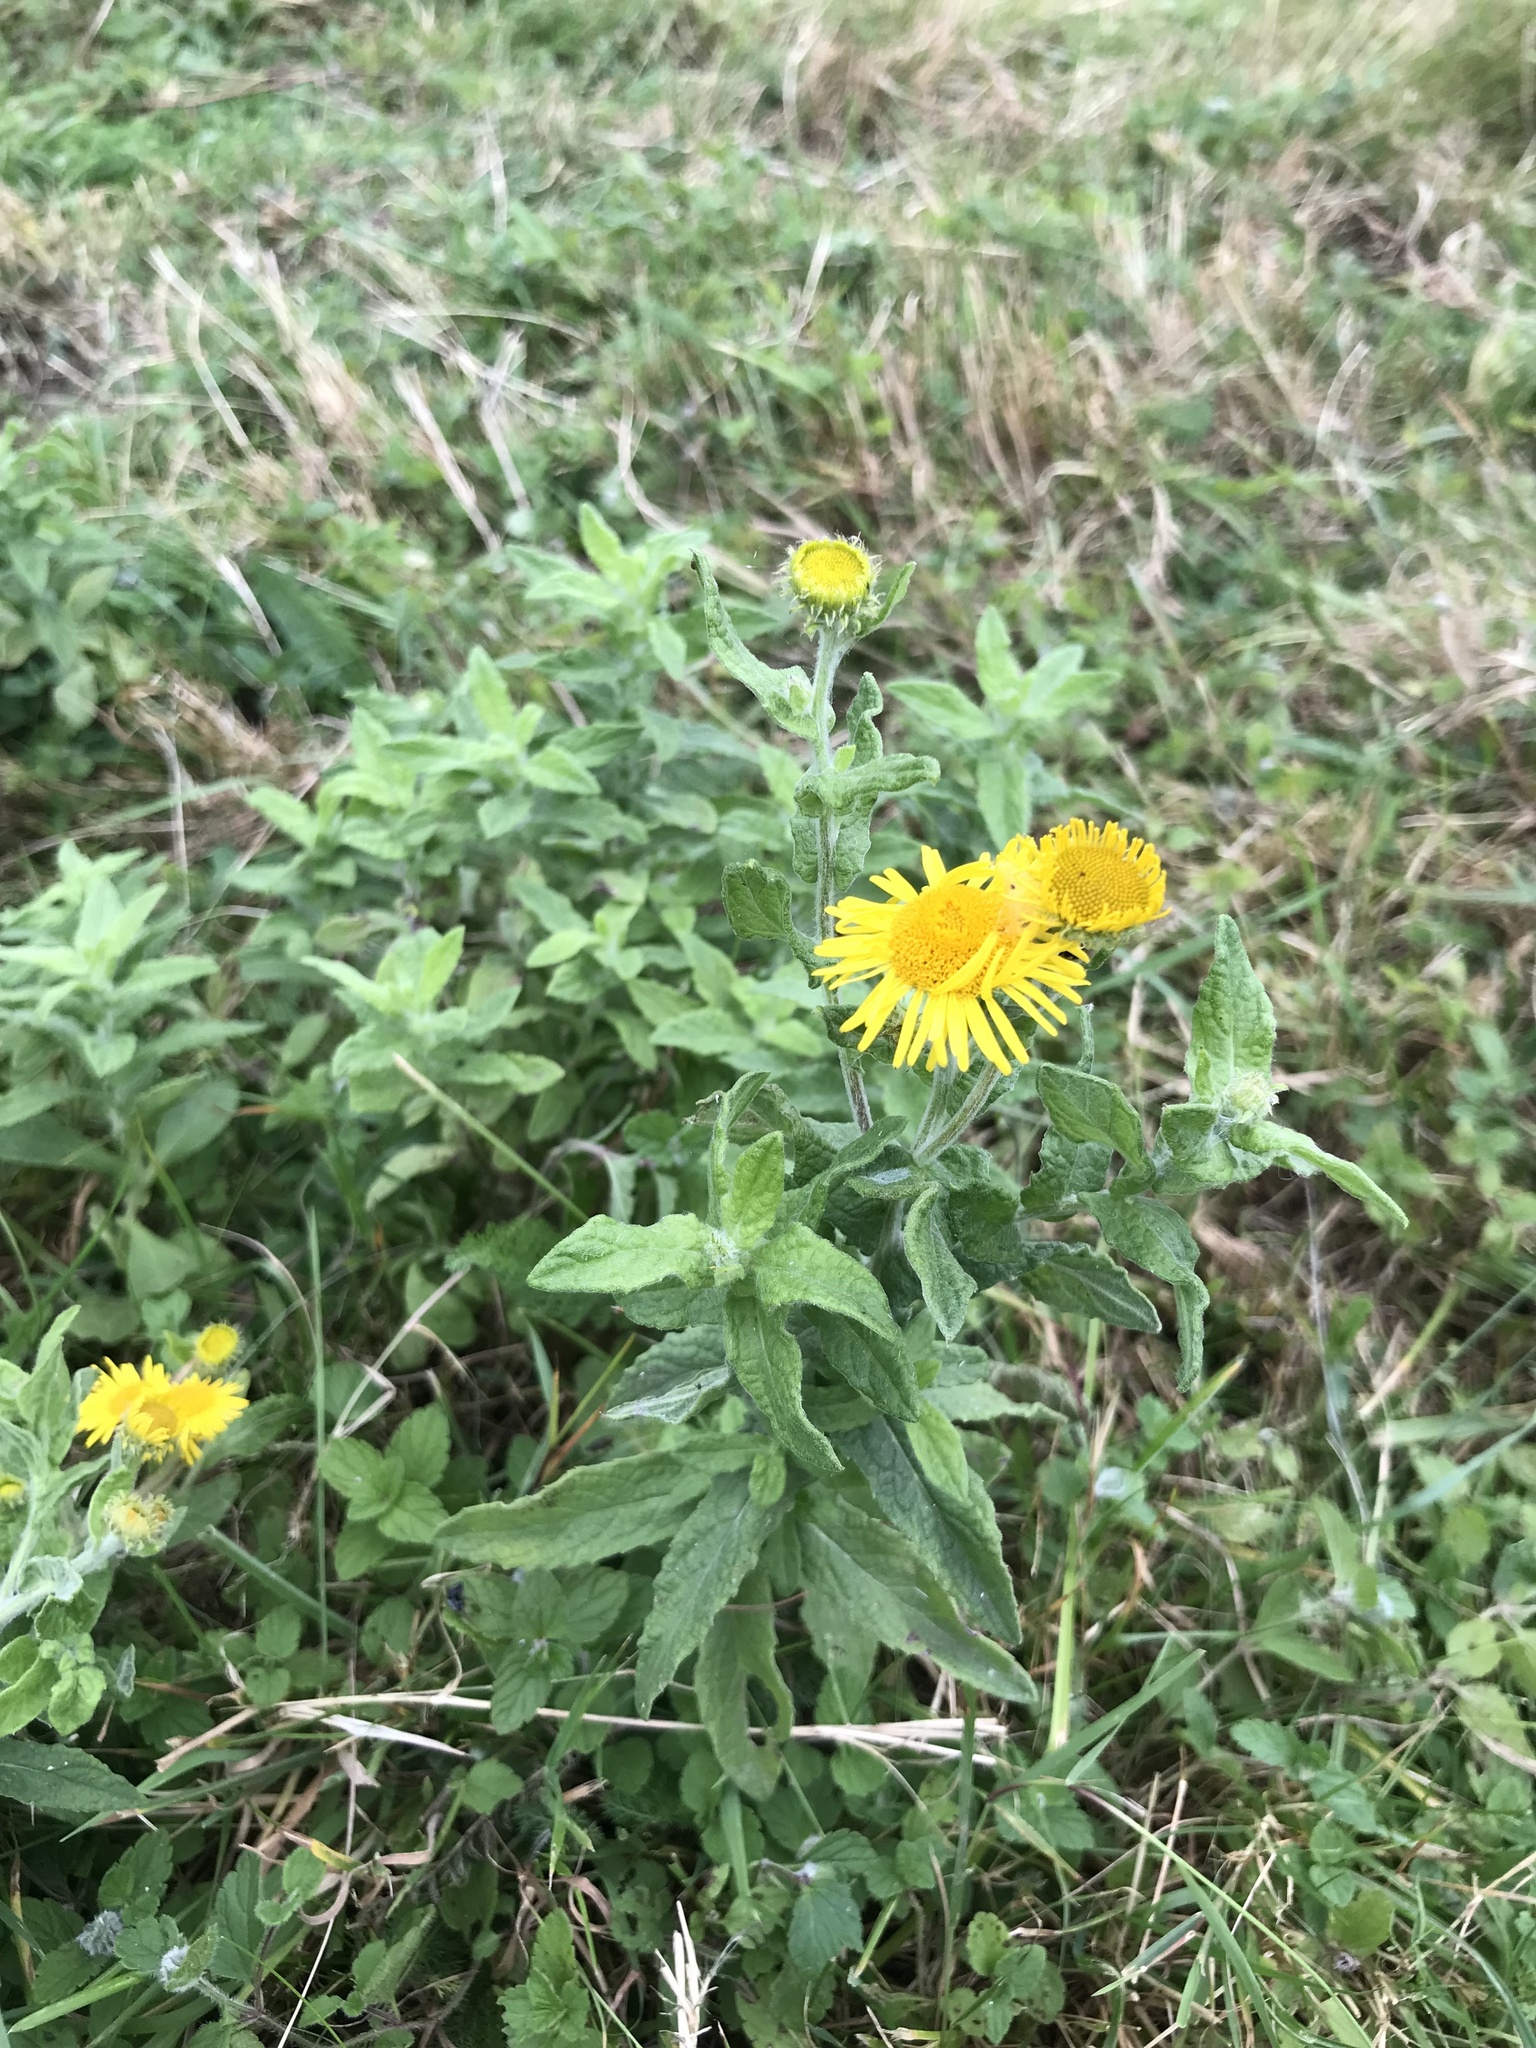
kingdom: Plantae
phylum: Tracheophyta
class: Magnoliopsida
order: Asterales
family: Asteraceae
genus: Pulicaria
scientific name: Pulicaria dysenterica
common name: Common fleabane
